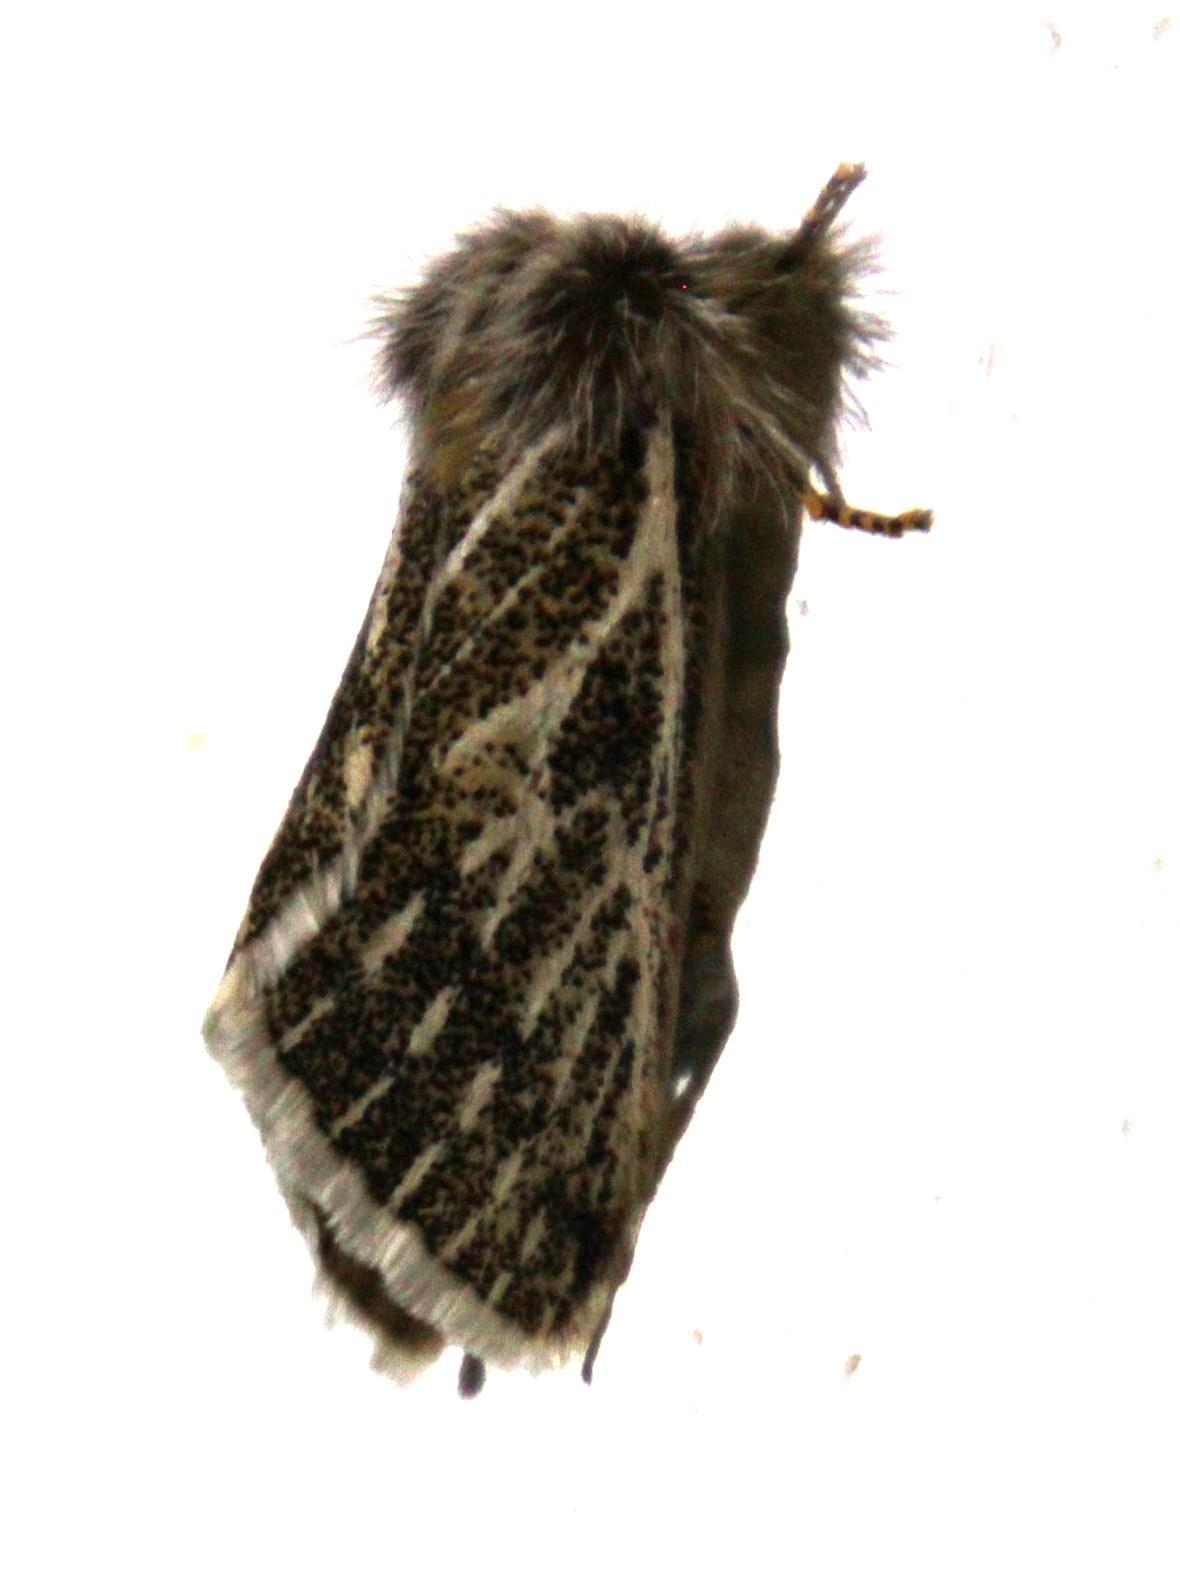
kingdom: Animalia
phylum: Arthropoda
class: Insecta
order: Lepidoptera
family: Eupterotidae
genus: Rhabdosia
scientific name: Rhabdosia vaninia
